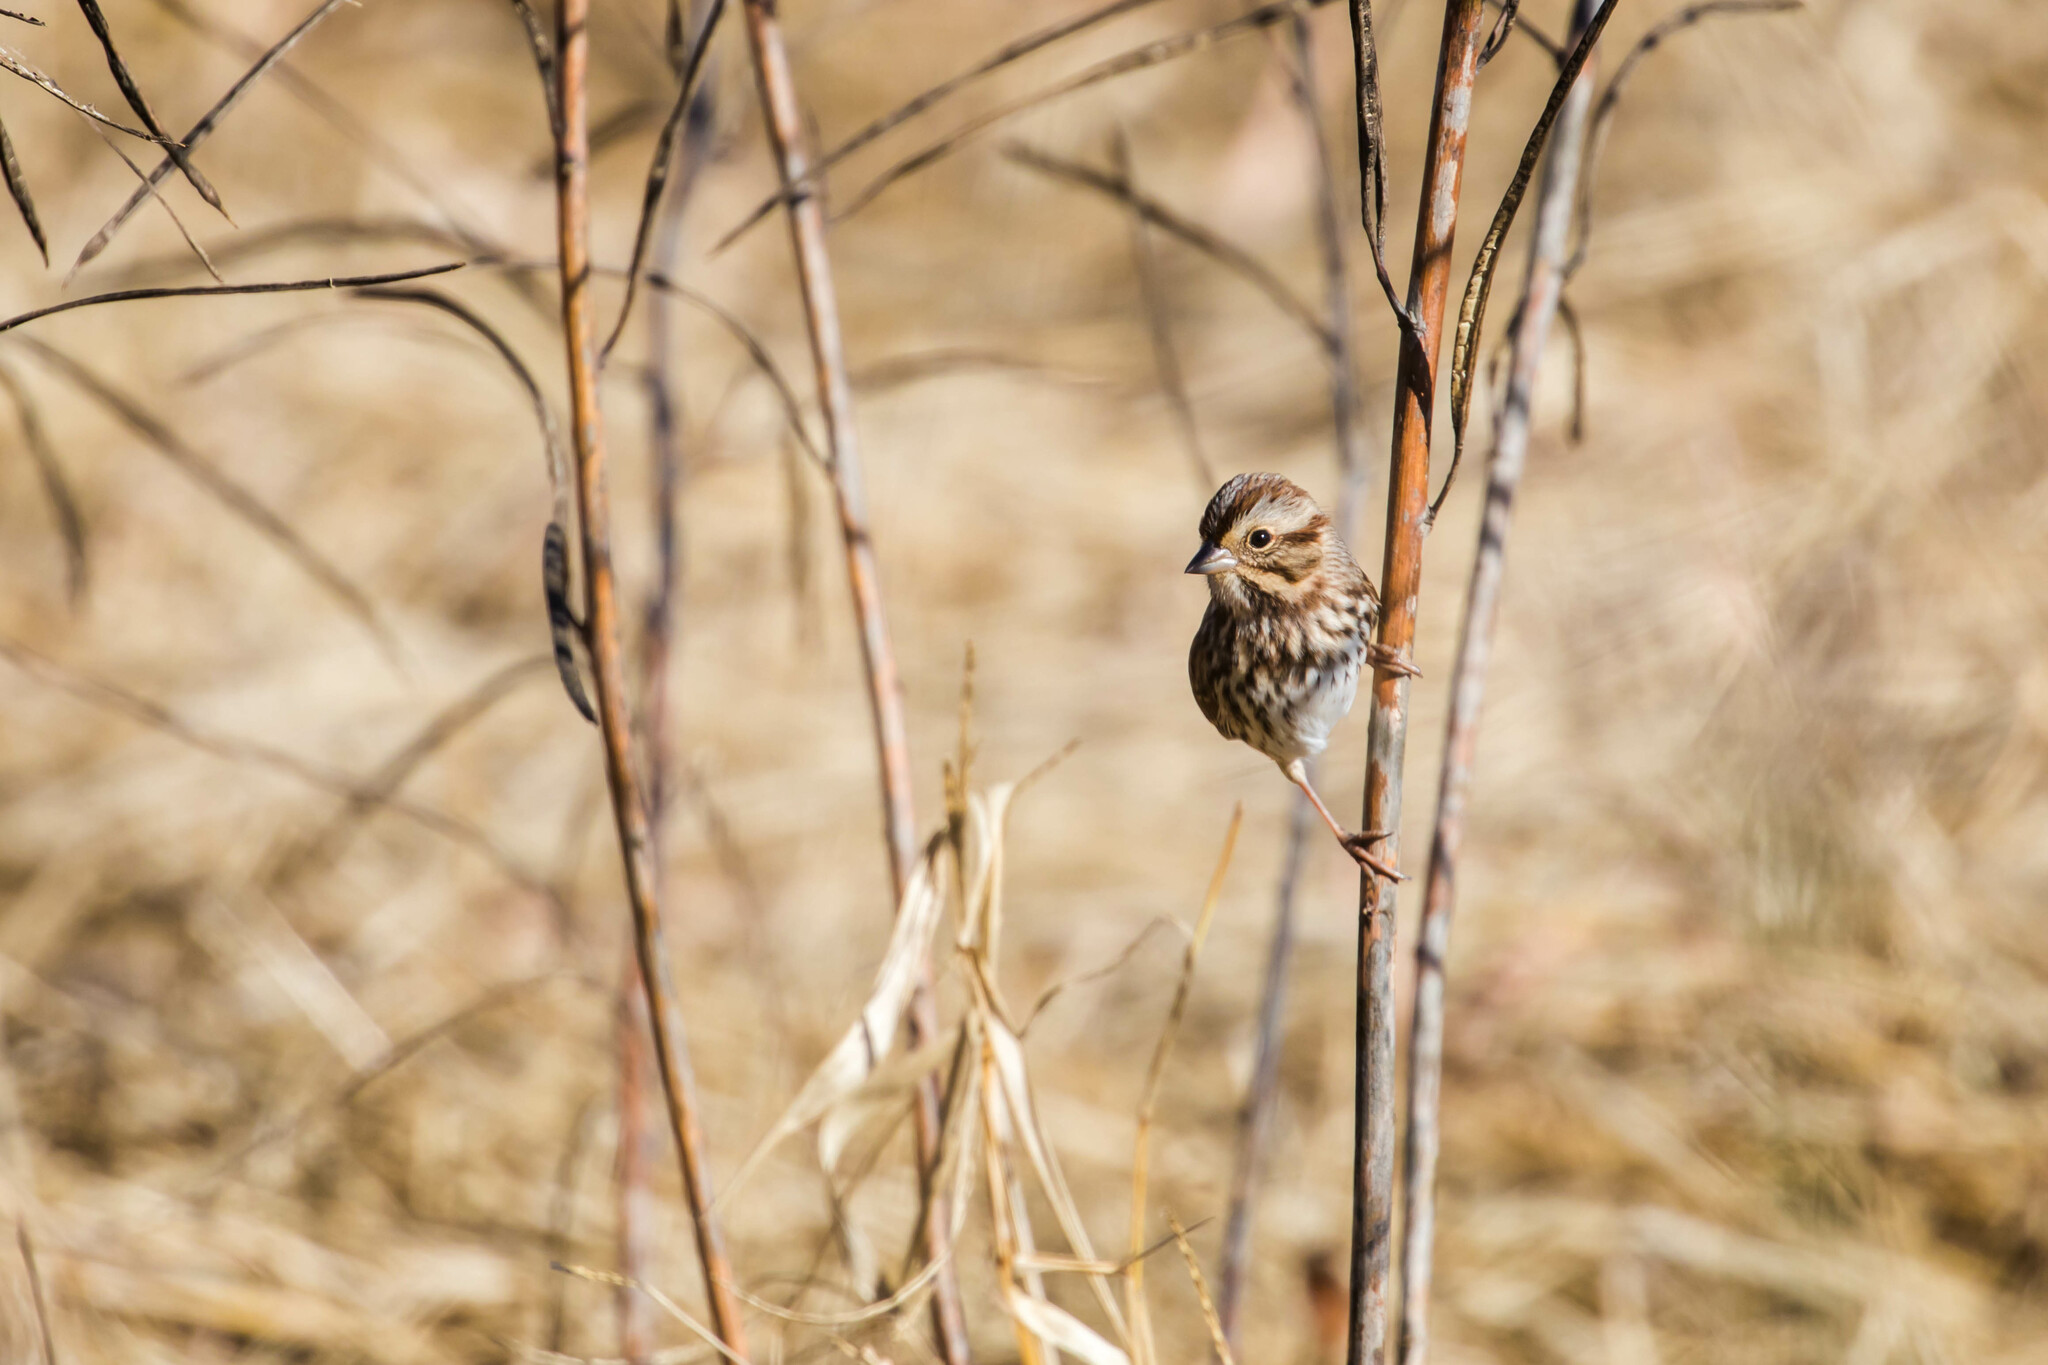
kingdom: Animalia
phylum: Chordata
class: Aves
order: Passeriformes
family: Passerellidae
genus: Melospiza
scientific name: Melospiza melodia
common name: Song sparrow
